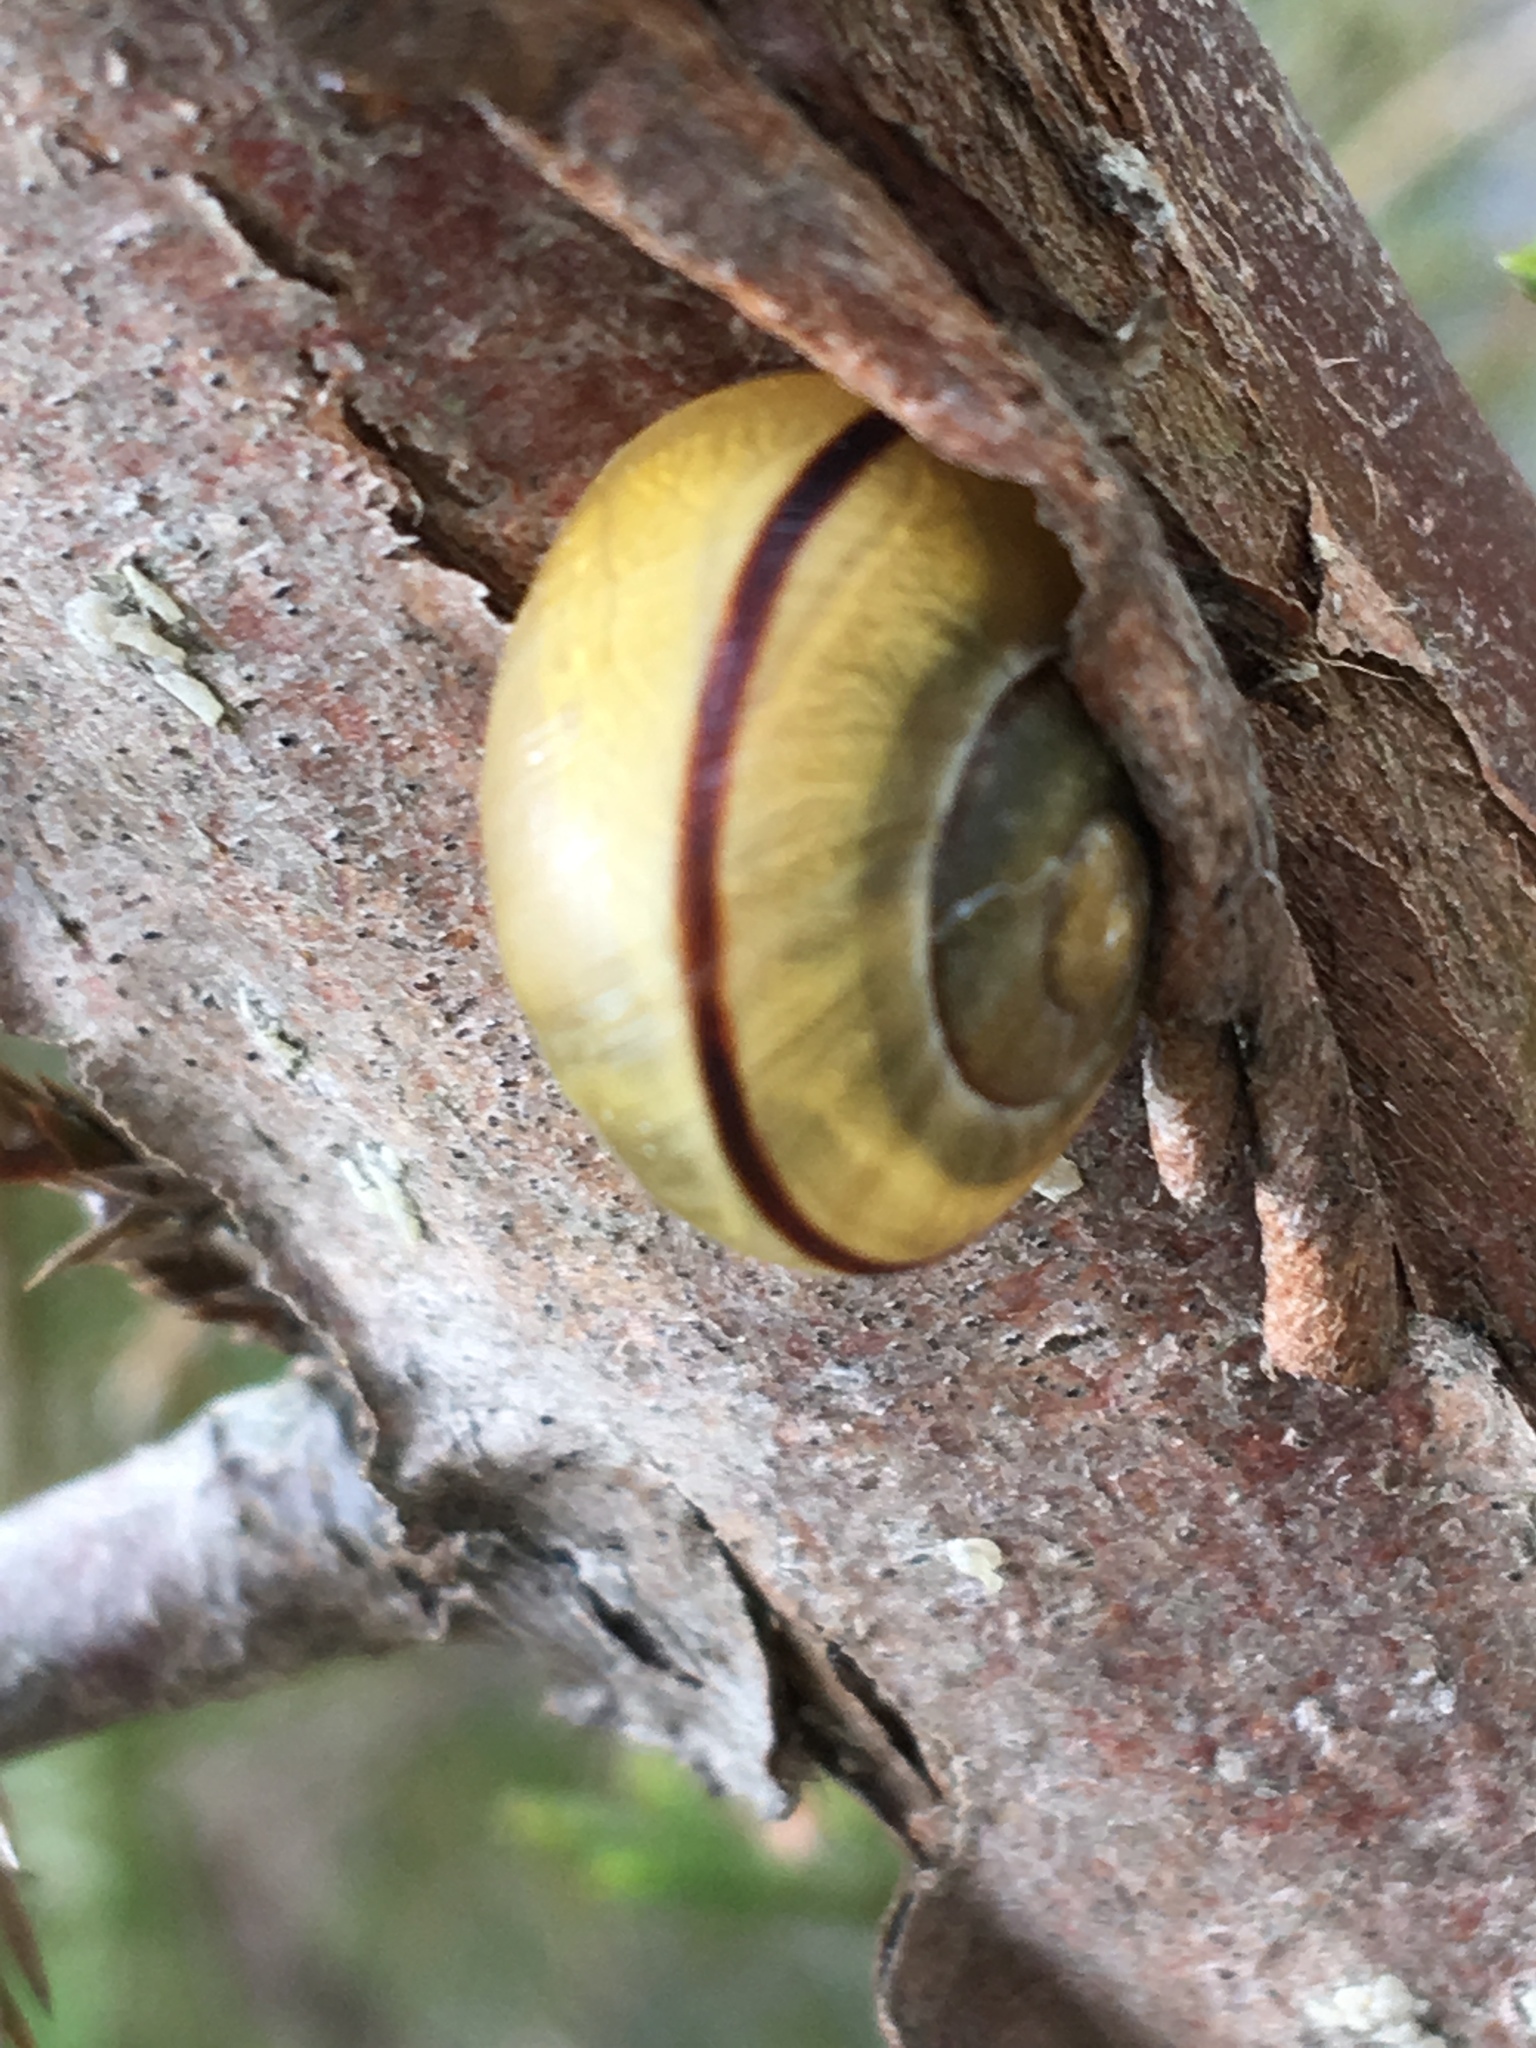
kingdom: Animalia
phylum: Mollusca
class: Gastropoda
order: Stylommatophora
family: Helicidae
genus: Cepaea
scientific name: Cepaea nemoralis
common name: Grovesnail
